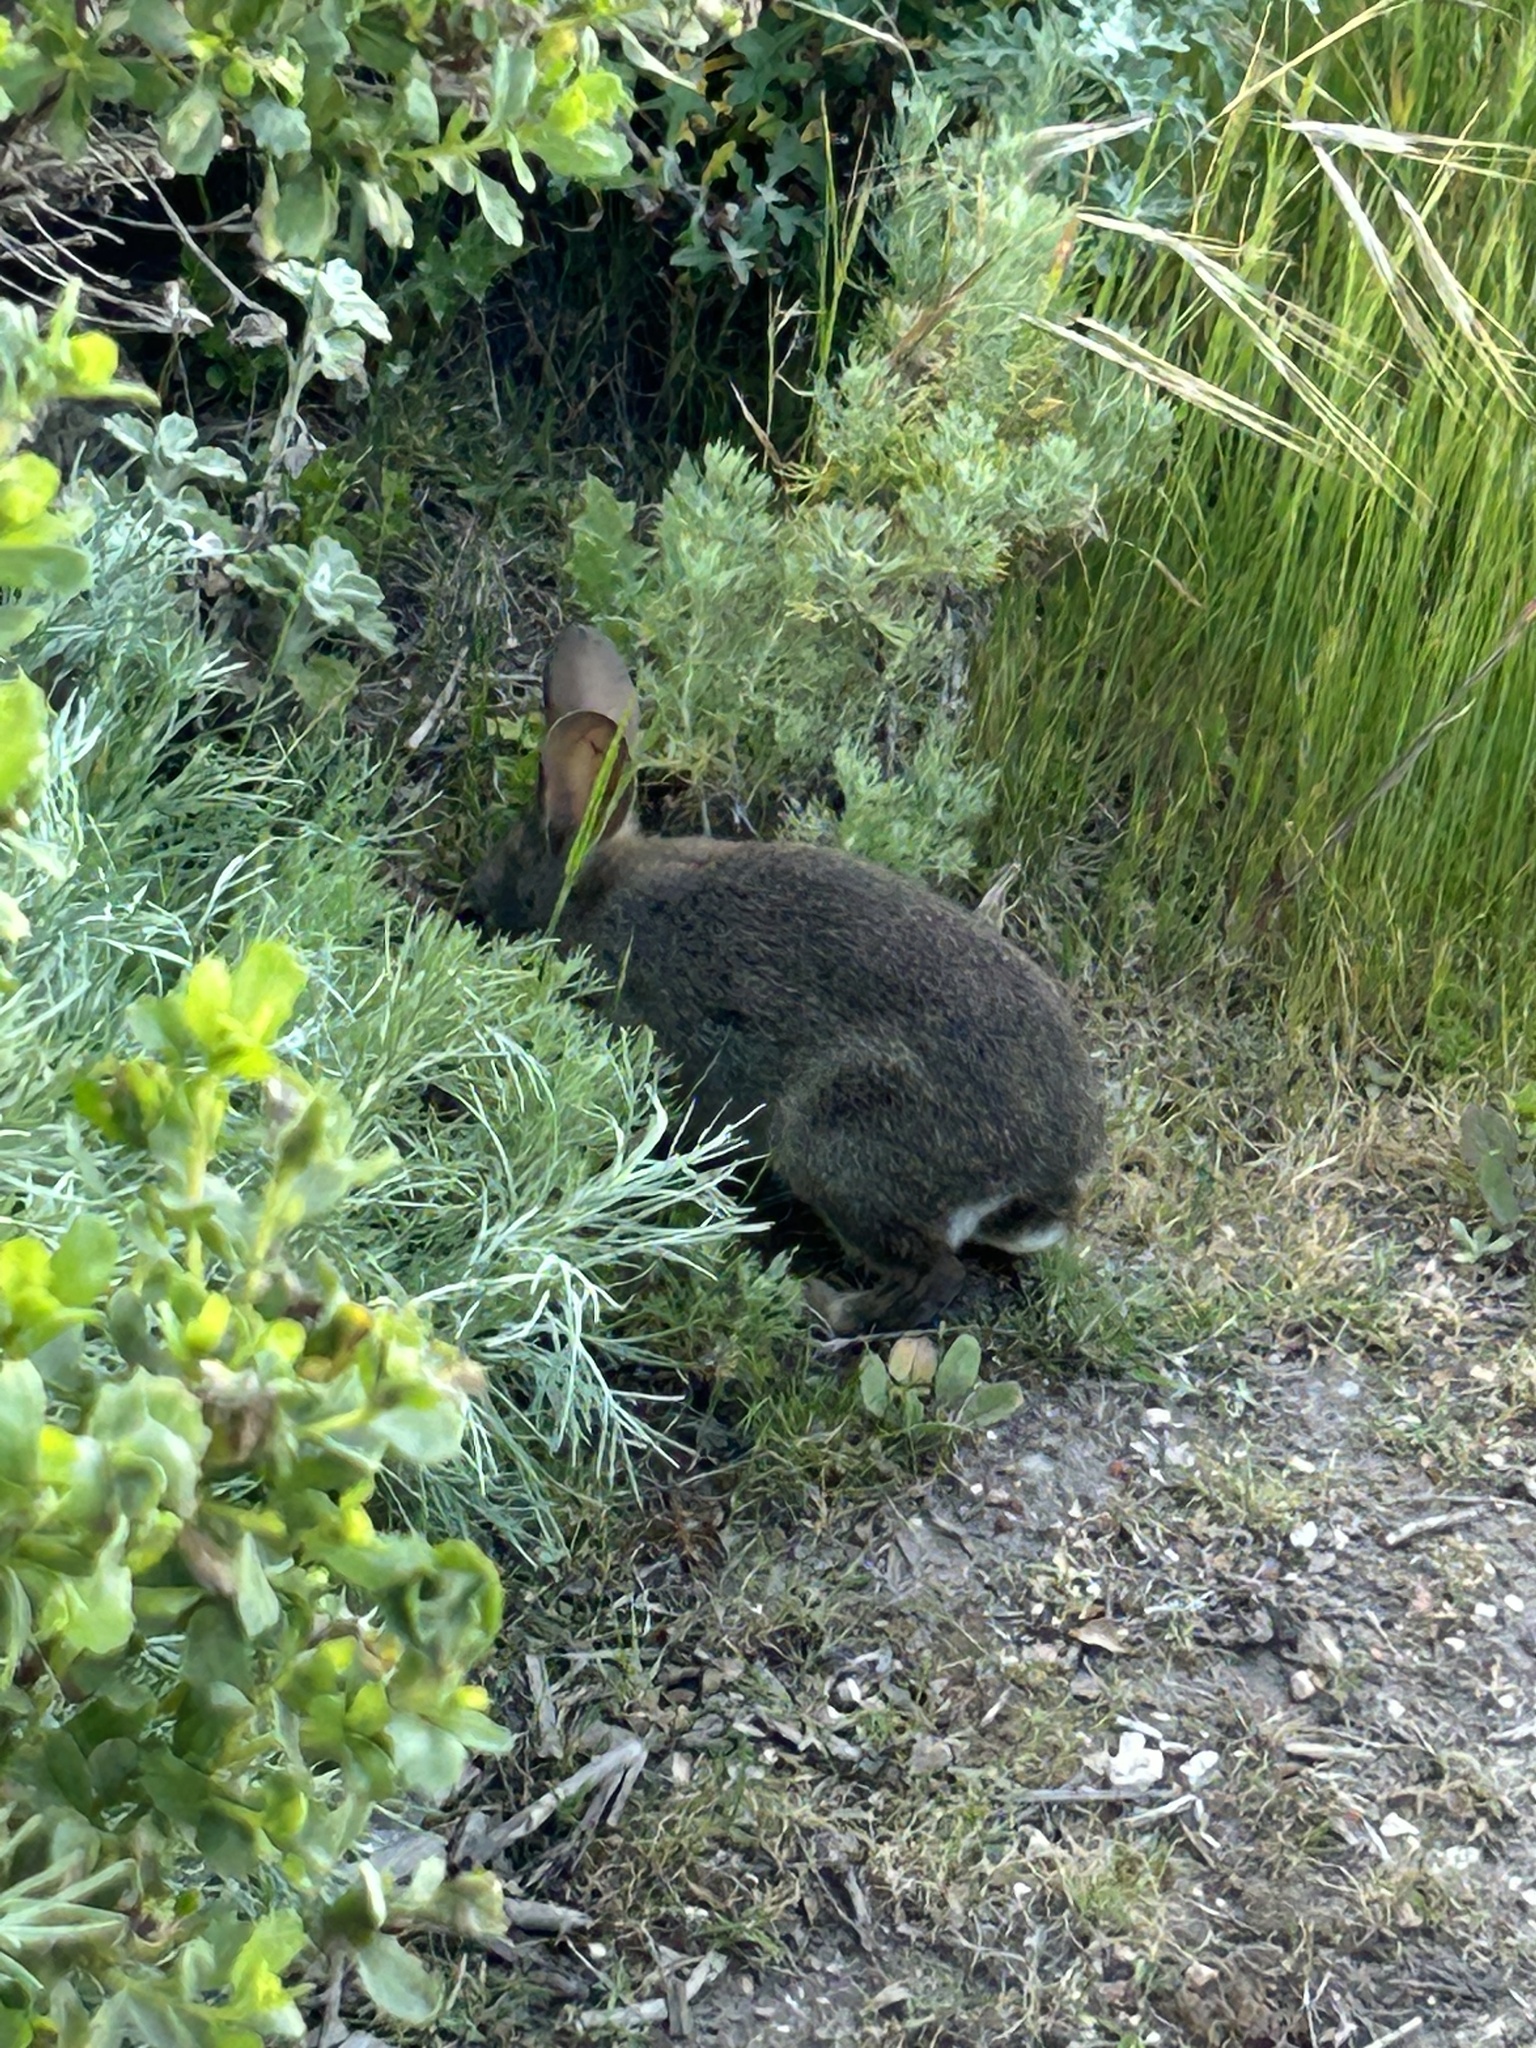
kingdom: Animalia
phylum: Chordata
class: Mammalia
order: Lagomorpha
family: Leporidae
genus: Sylvilagus
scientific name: Sylvilagus bachmani
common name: Brush rabbit
